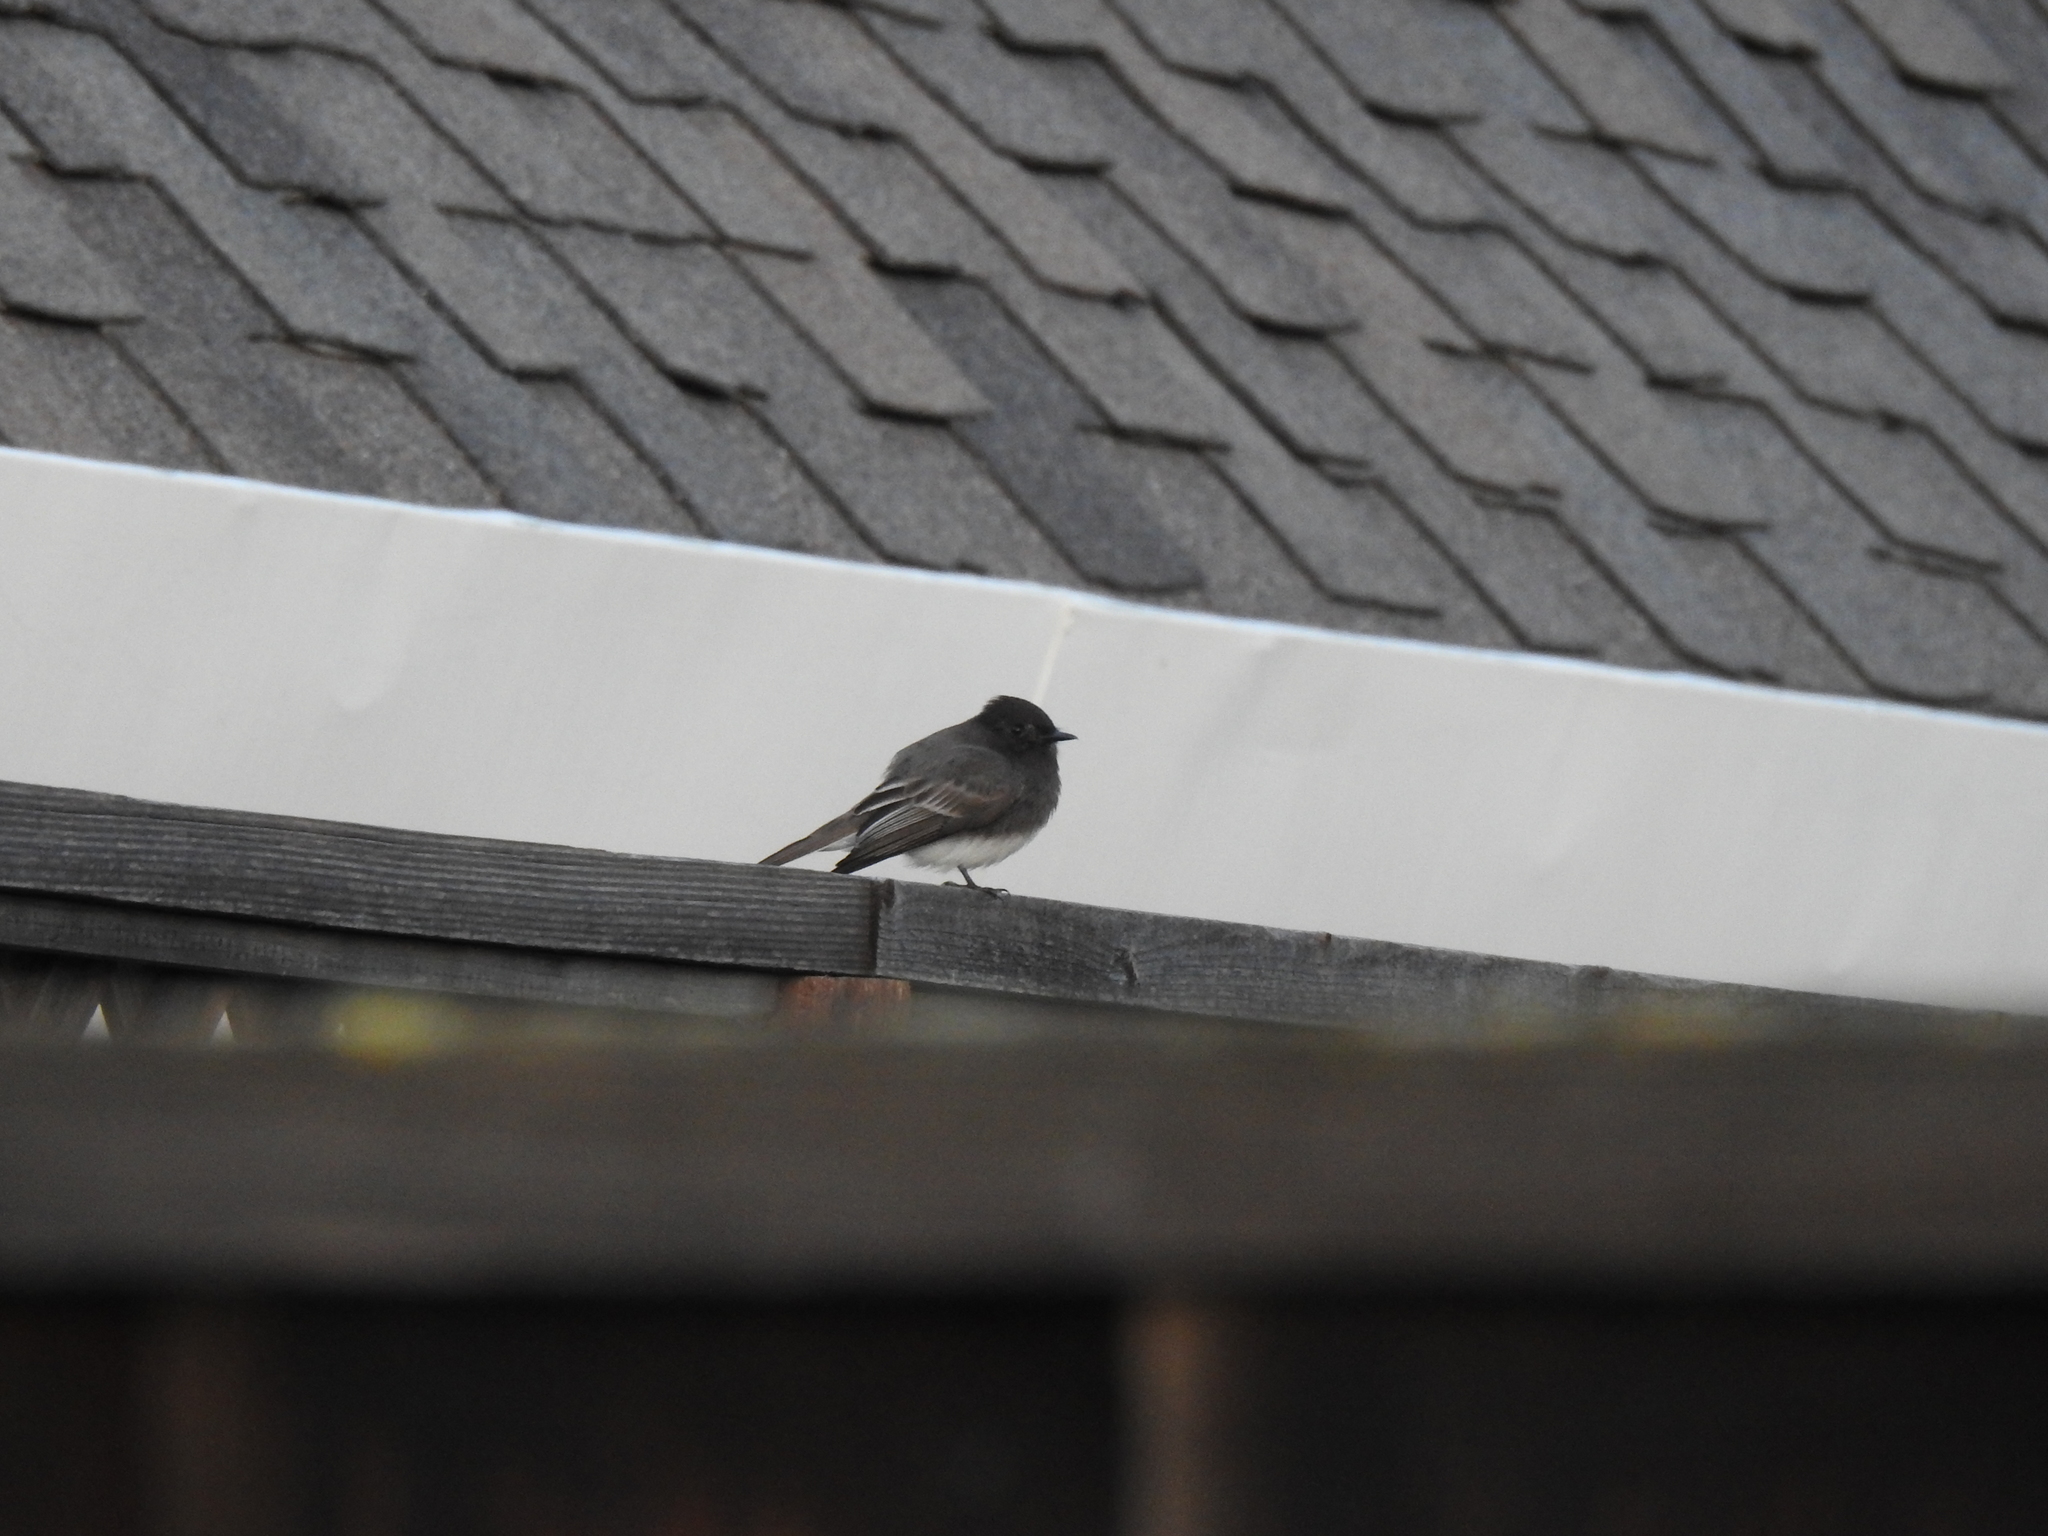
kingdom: Animalia
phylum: Chordata
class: Aves
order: Passeriformes
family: Tyrannidae
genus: Sayornis
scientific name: Sayornis nigricans
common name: Black phoebe
